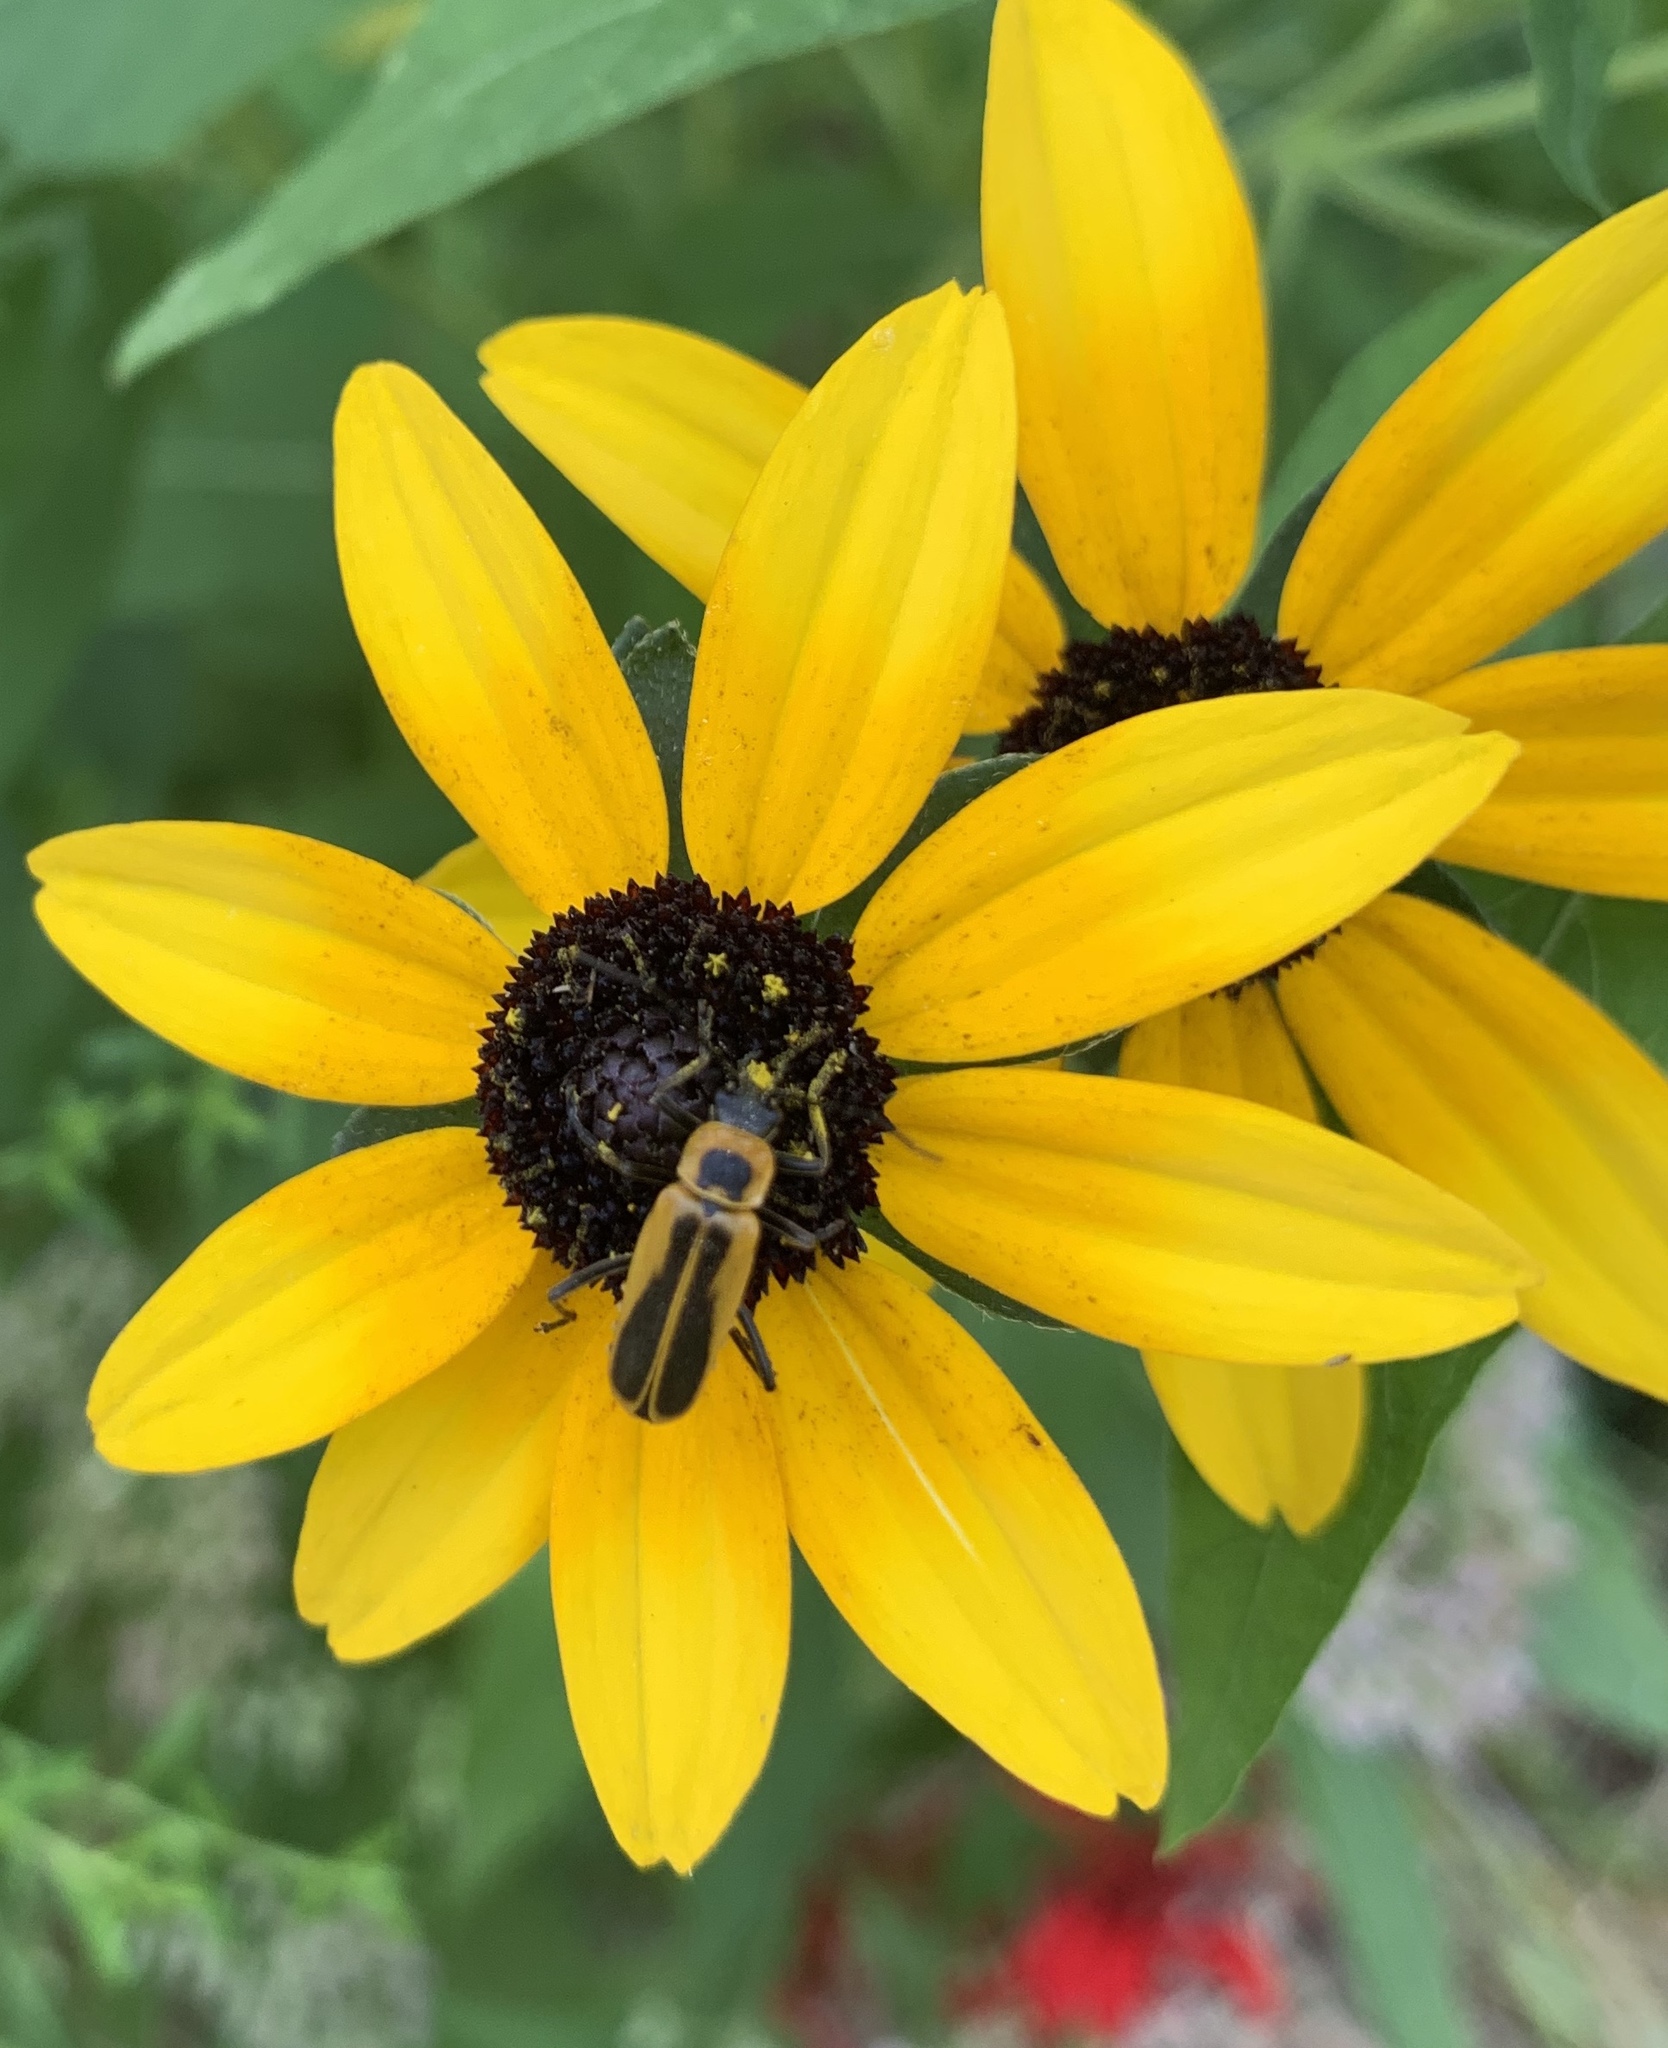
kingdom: Animalia
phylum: Arthropoda
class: Insecta
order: Coleoptera
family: Cantharidae
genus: Chauliognathus
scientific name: Chauliognathus pensylvanicus
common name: Goldenrod soldier beetle
